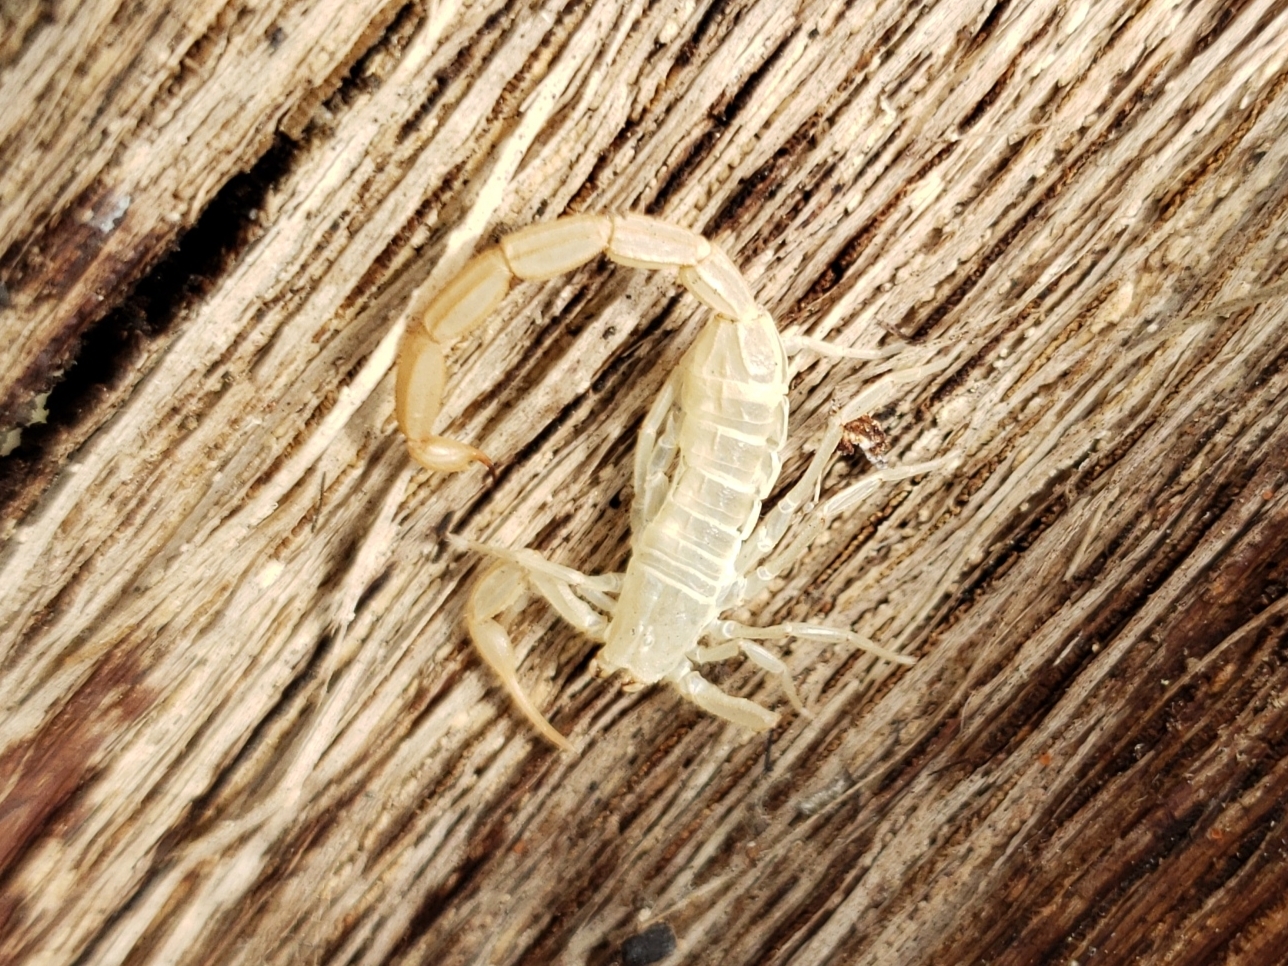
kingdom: Animalia
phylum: Arthropoda
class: Arachnida
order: Scorpiones
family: Buthidae
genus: Centruroides
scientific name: Centruroides hentzi
